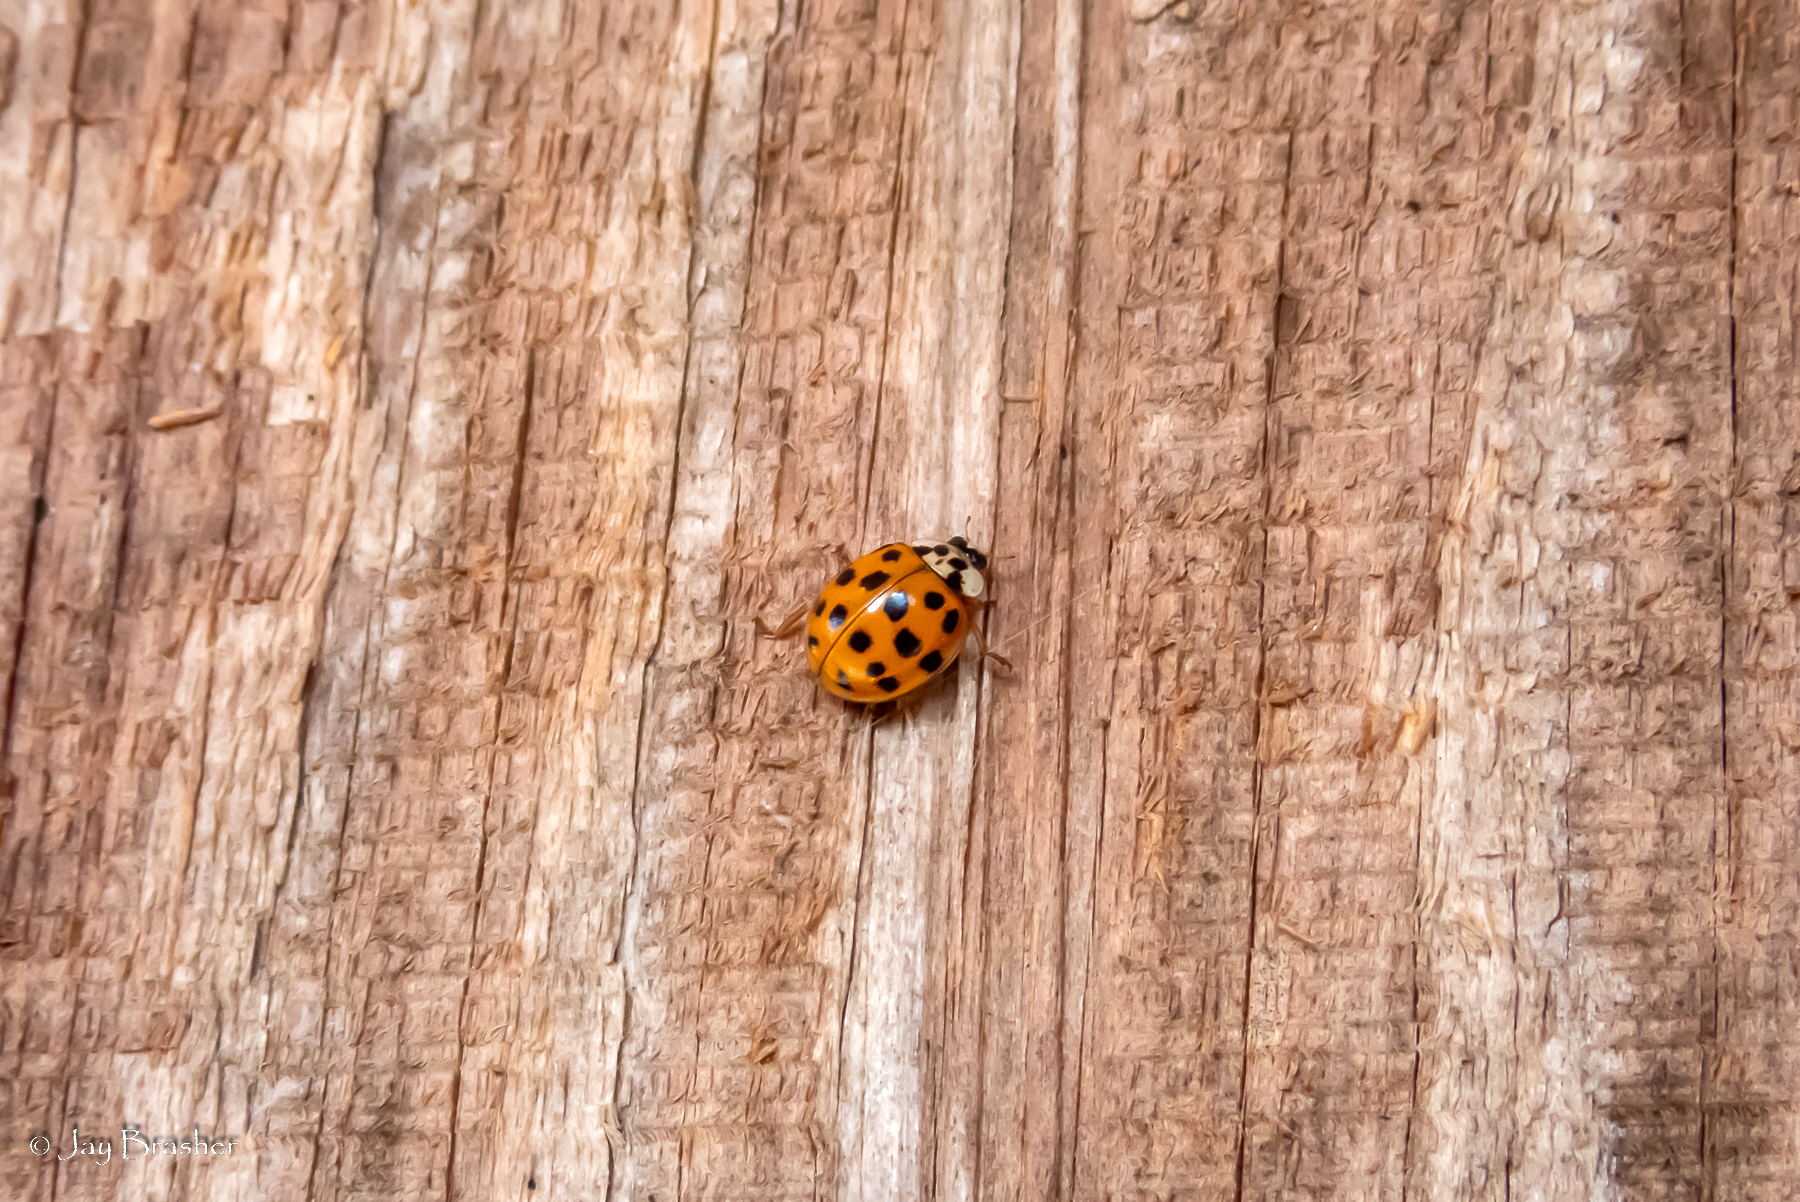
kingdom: Animalia
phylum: Arthropoda
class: Insecta
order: Coleoptera
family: Coccinellidae
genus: Harmonia
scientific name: Harmonia axyridis
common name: Harlequin ladybird
